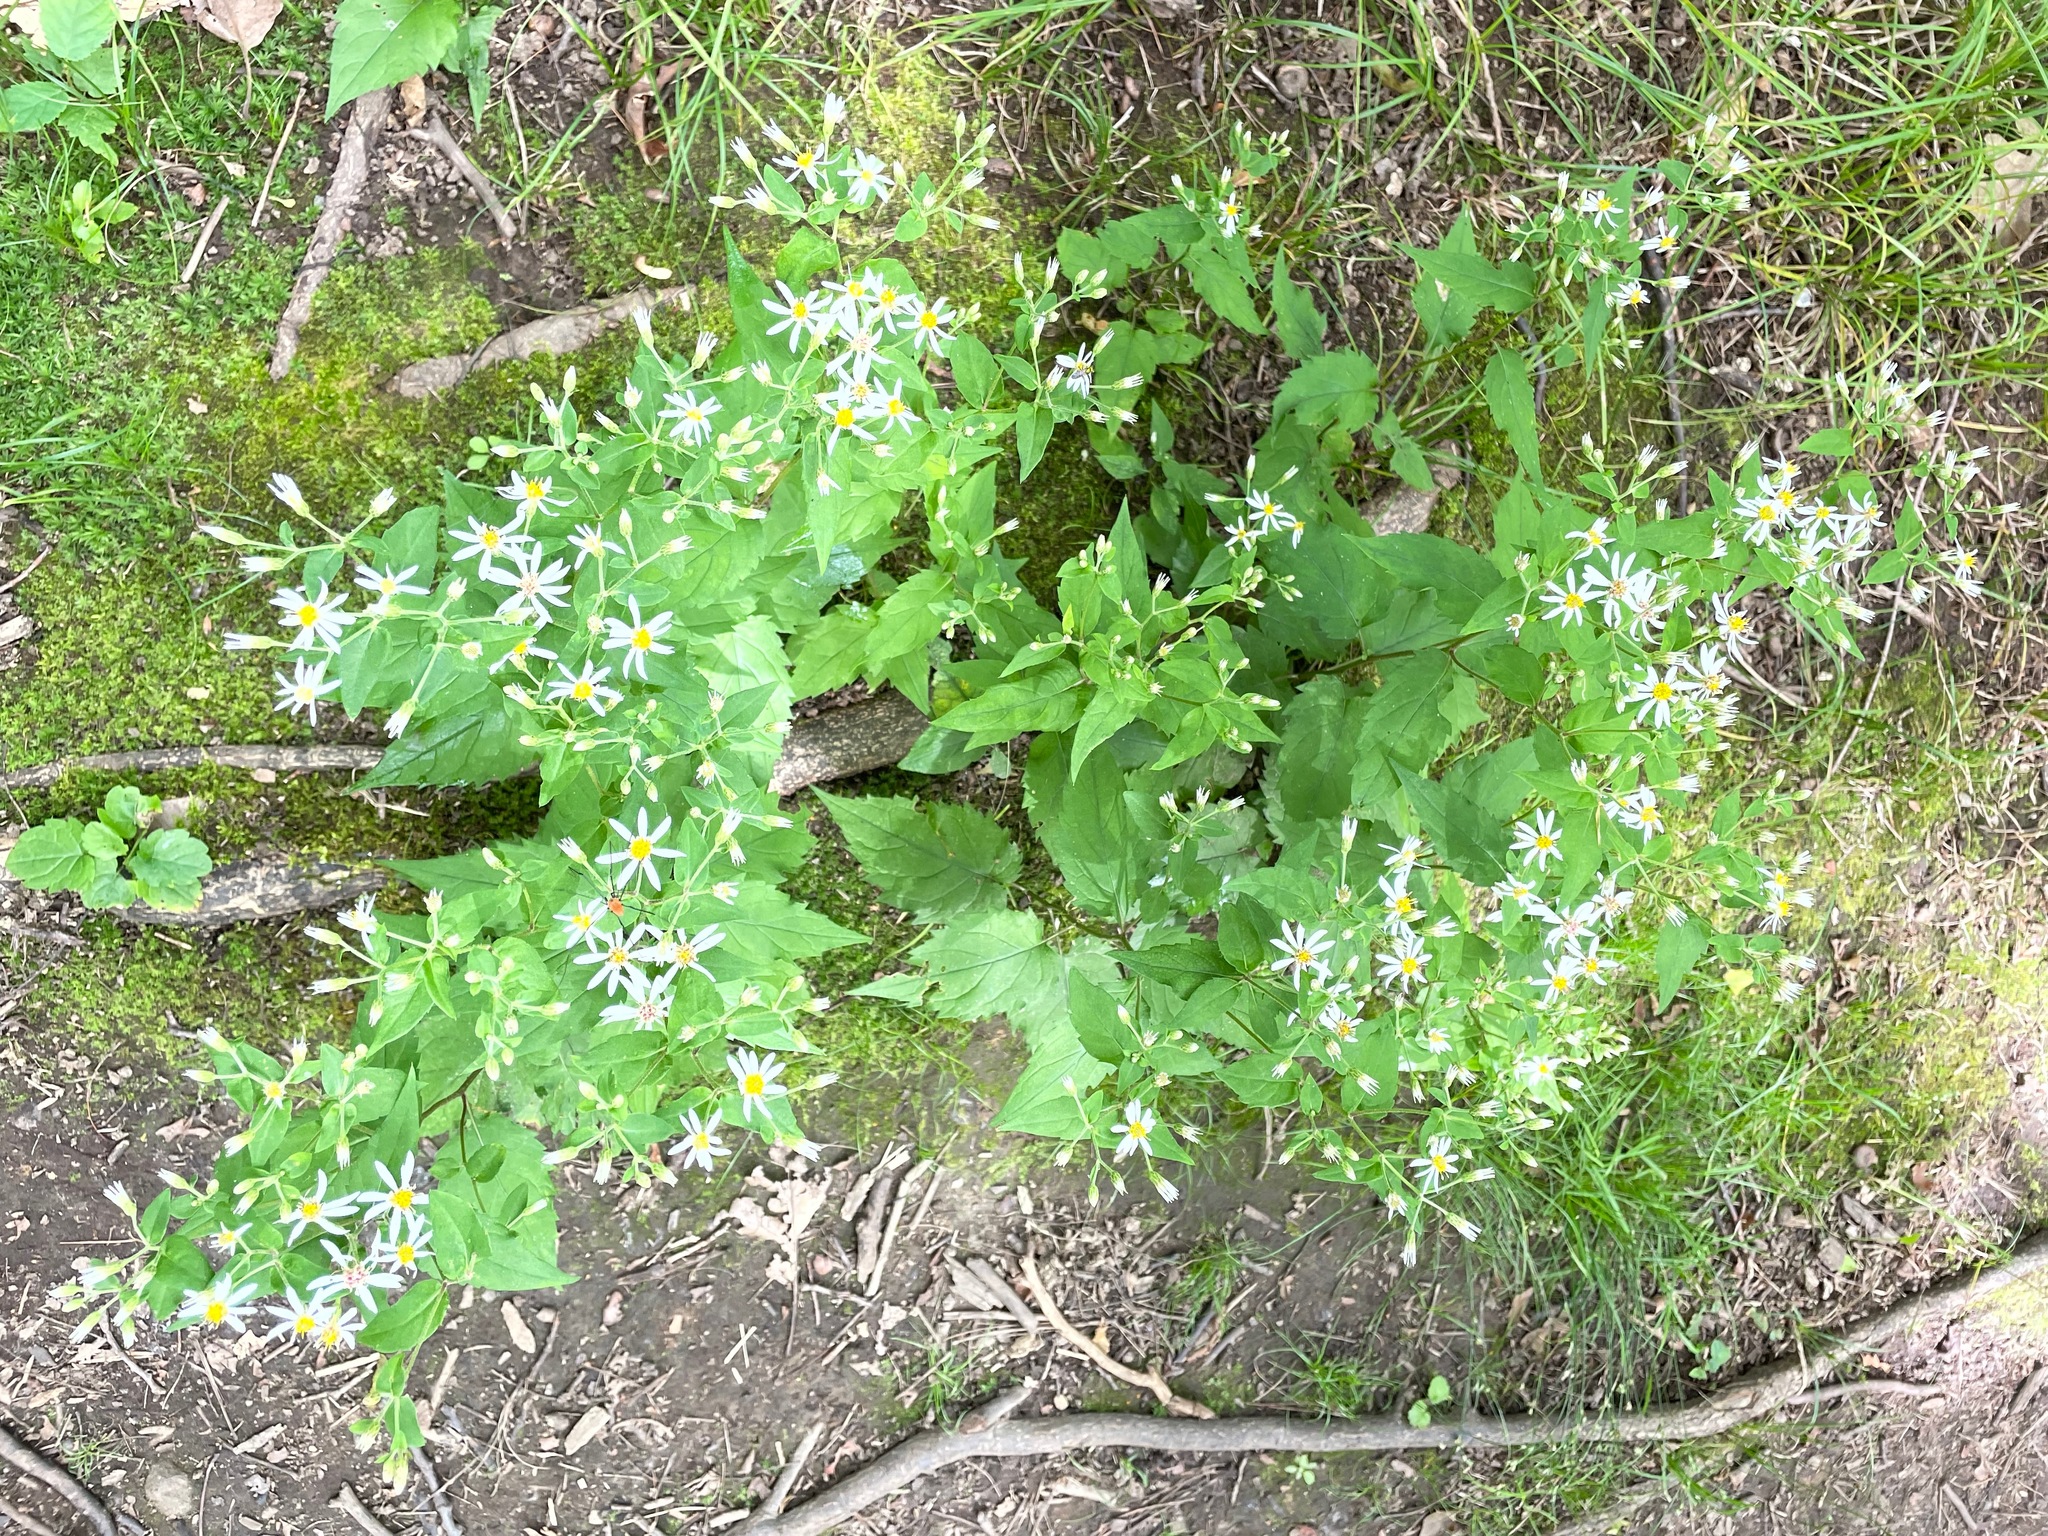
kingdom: Plantae
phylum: Tracheophyta
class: Magnoliopsida
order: Asterales
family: Asteraceae
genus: Eurybia
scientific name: Eurybia divaricata
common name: White wood aster
